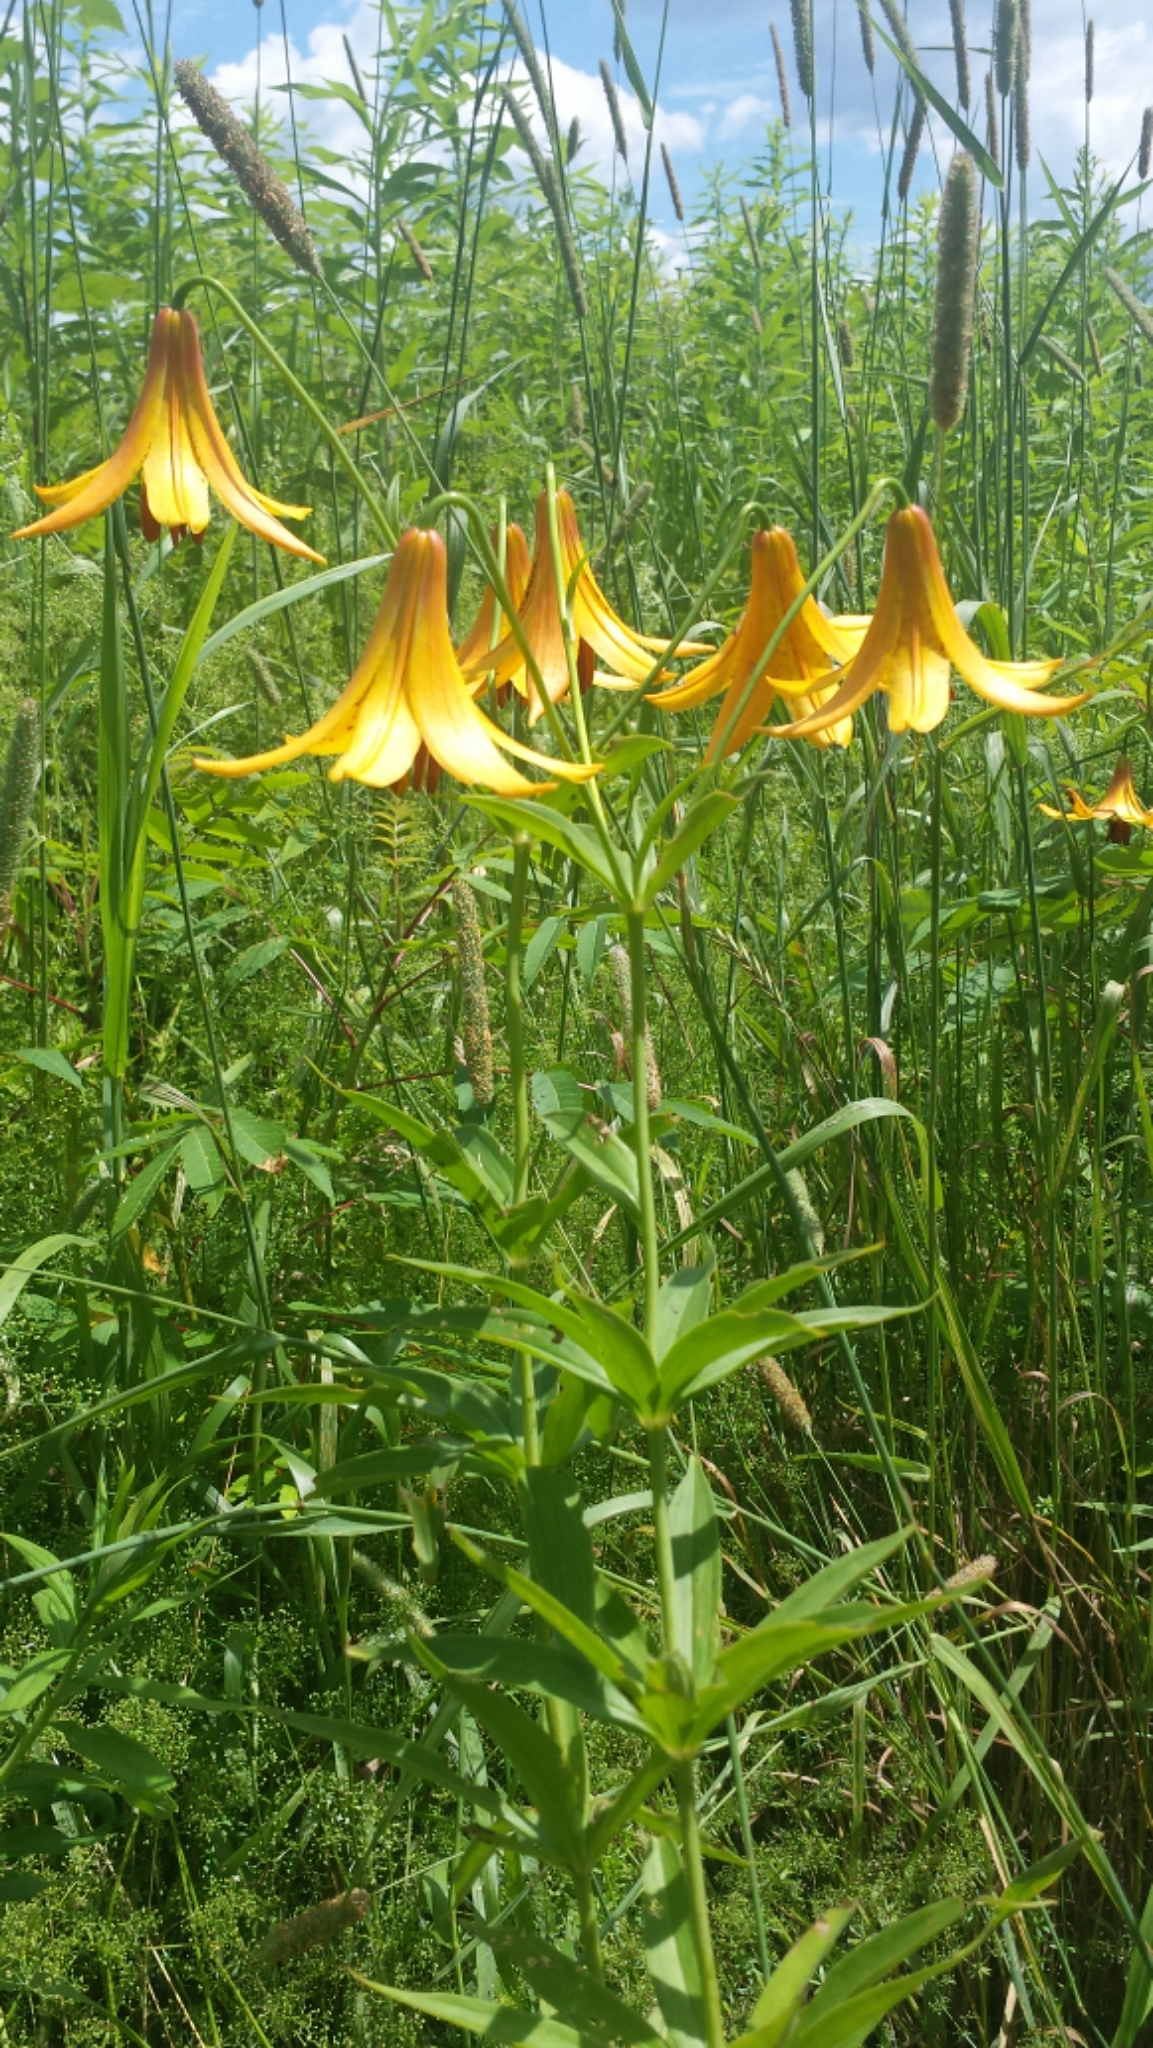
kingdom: Plantae
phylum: Tracheophyta
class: Liliopsida
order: Liliales
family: Liliaceae
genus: Lilium
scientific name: Lilium canadense
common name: Canada lily
